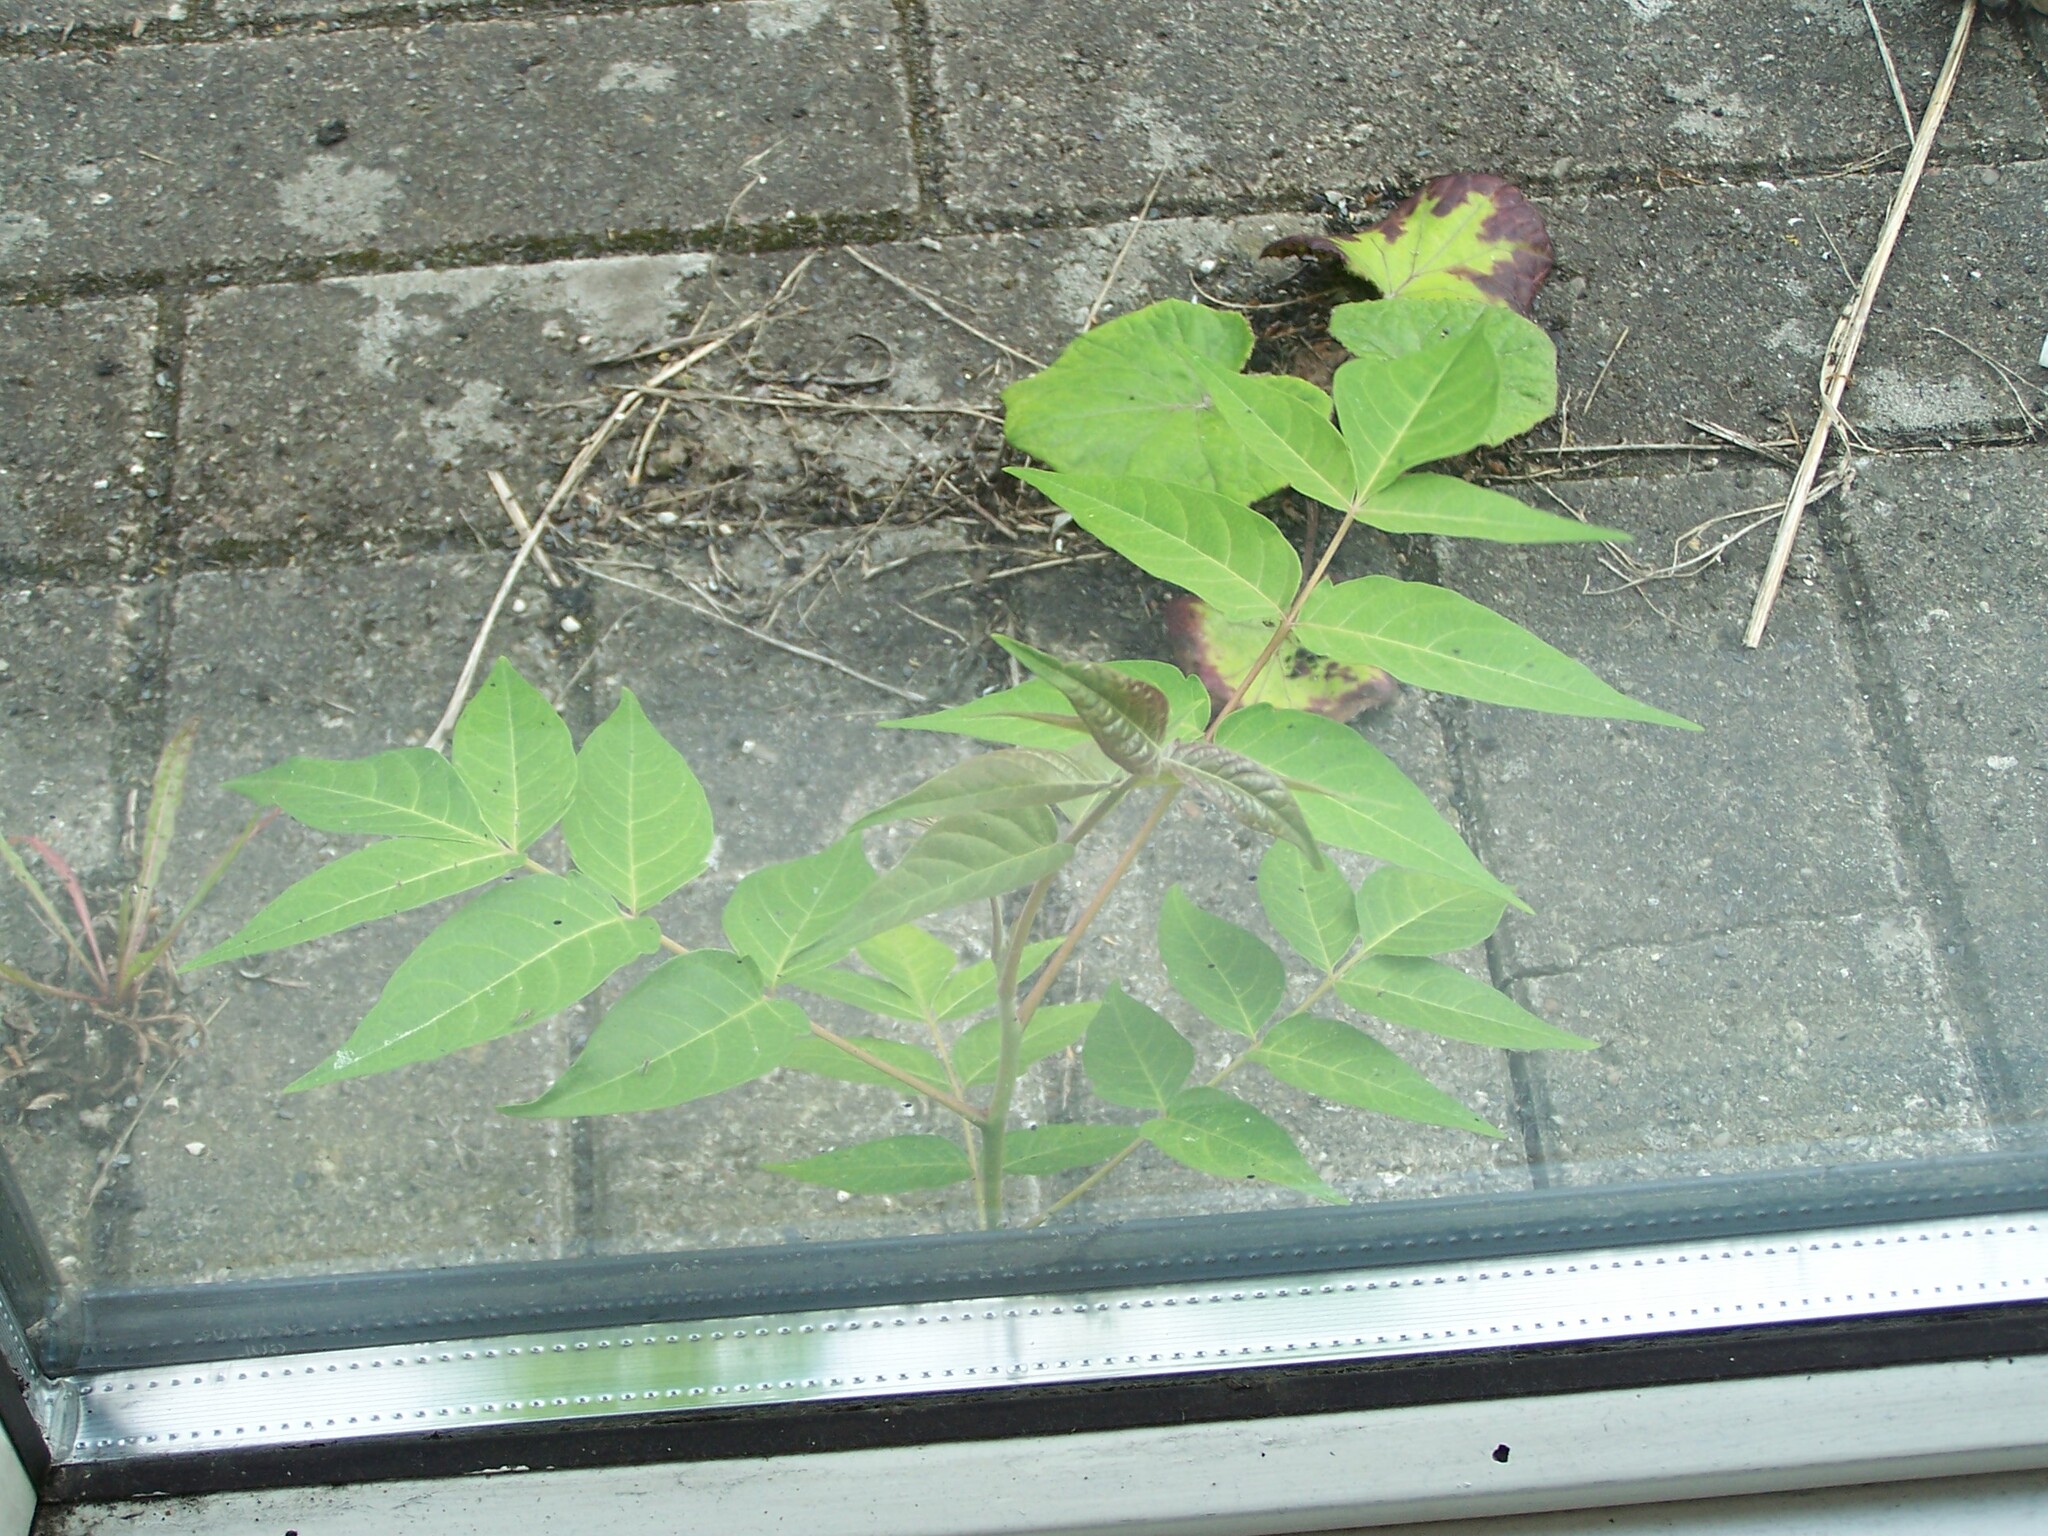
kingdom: Plantae
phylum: Tracheophyta
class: Magnoliopsida
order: Sapindales
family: Simaroubaceae
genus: Ailanthus
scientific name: Ailanthus altissima
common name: Tree-of-heaven
